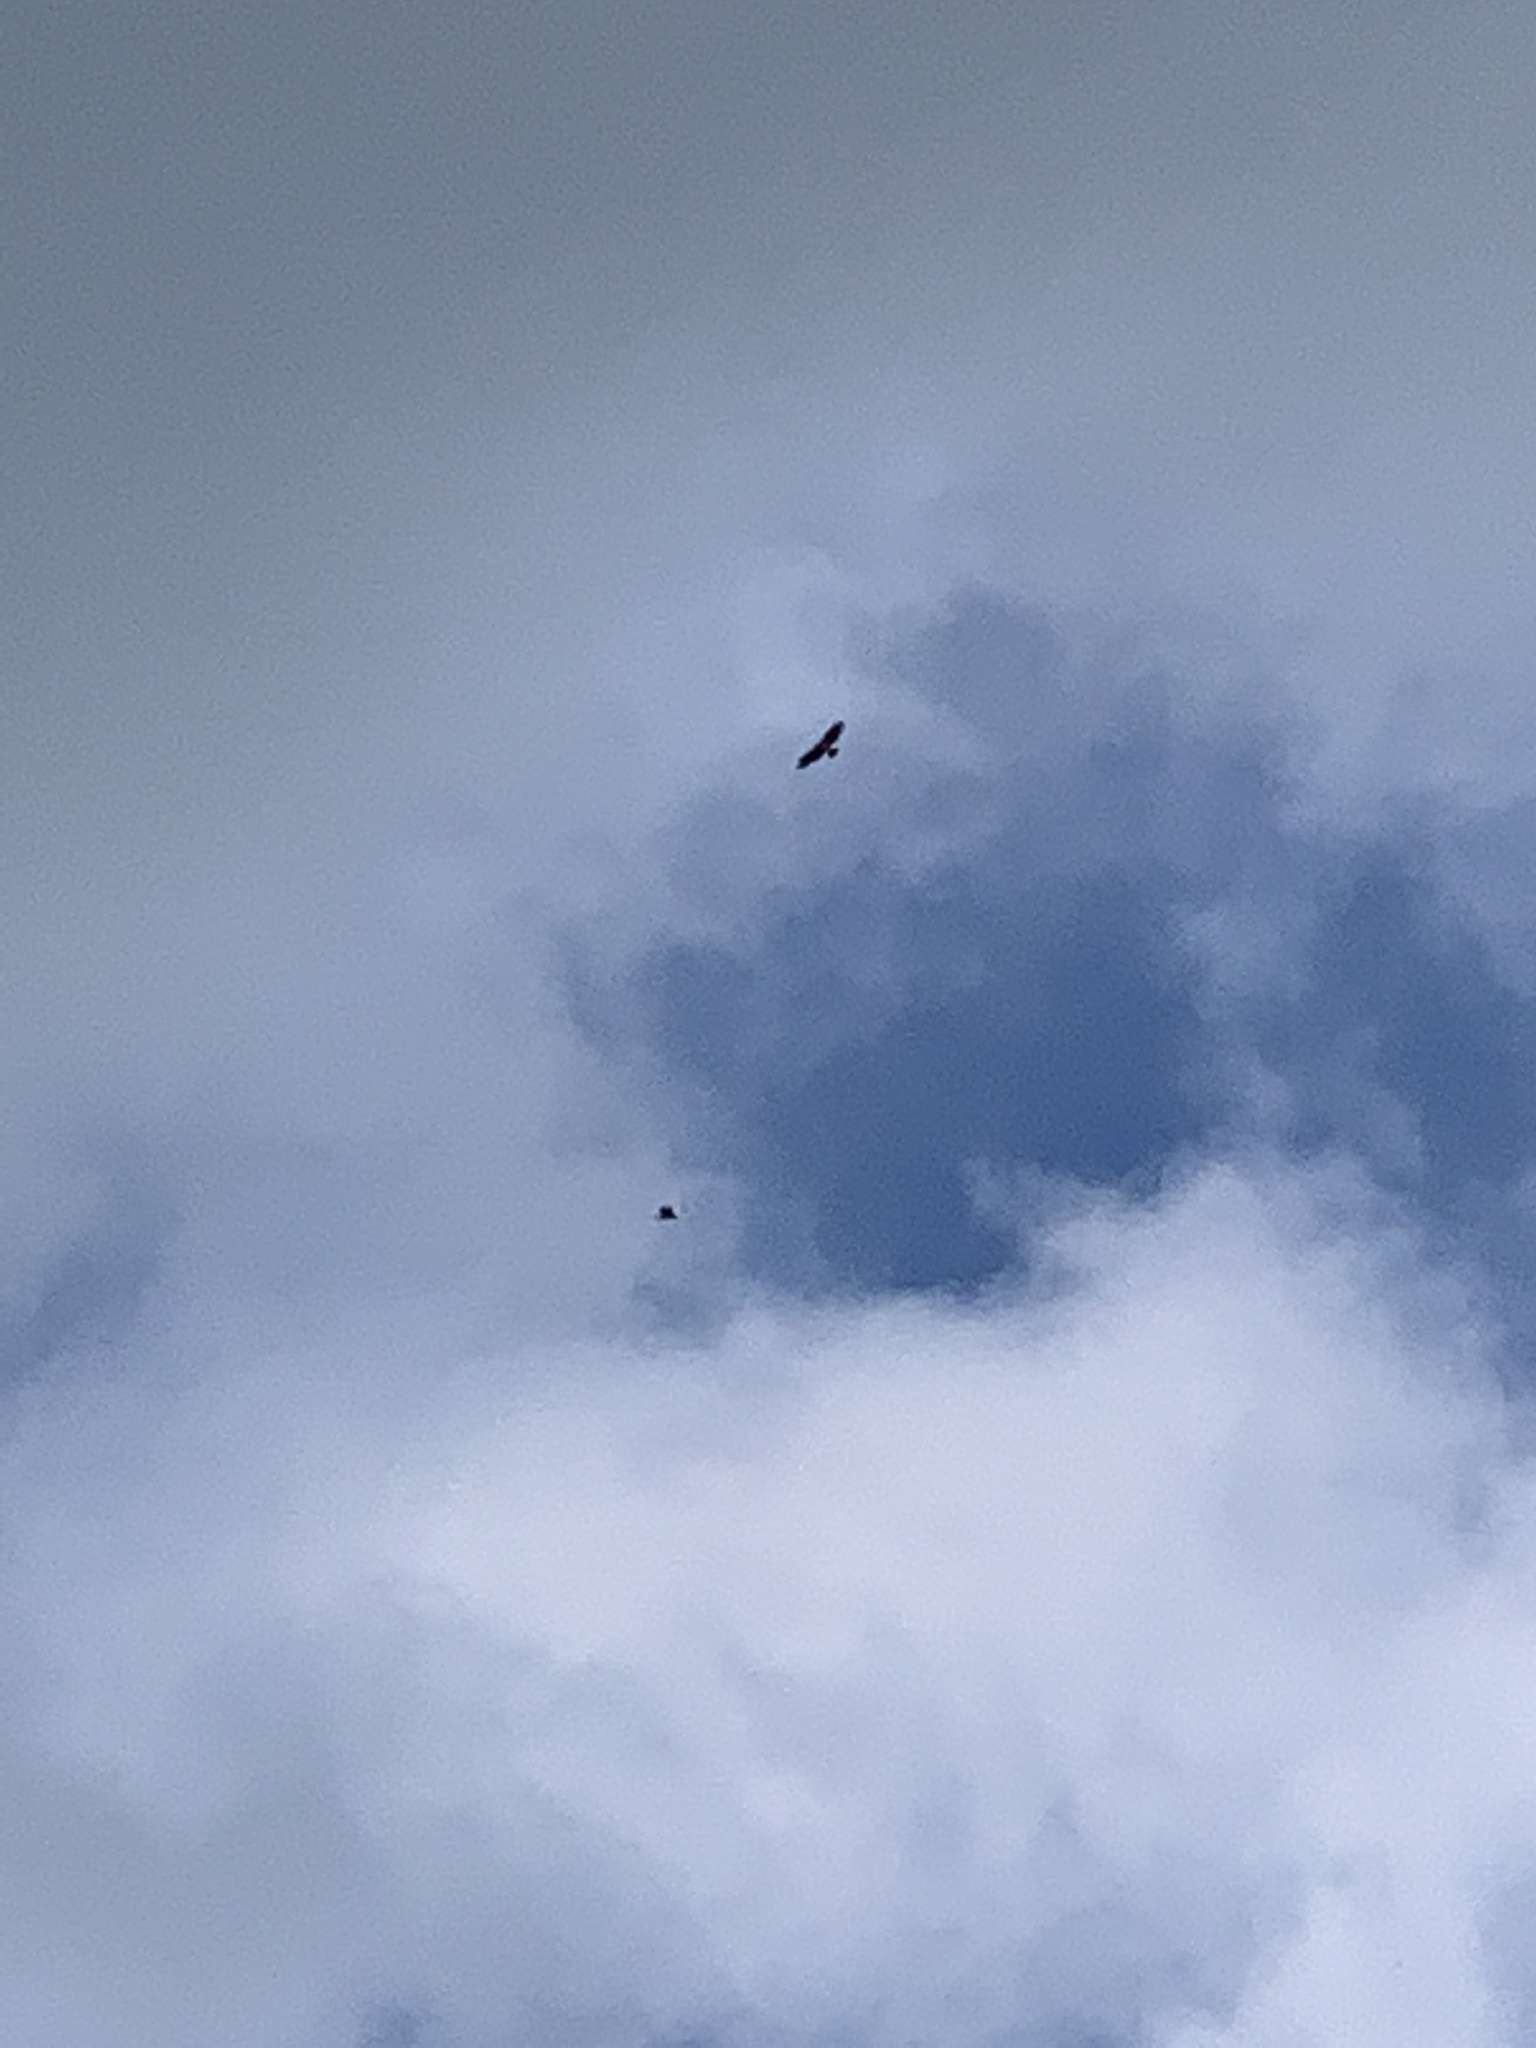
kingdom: Animalia
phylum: Chordata
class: Aves
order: Accipitriformes
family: Accipitridae
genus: Buteo
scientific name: Buteo buteo
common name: Common buzzard
